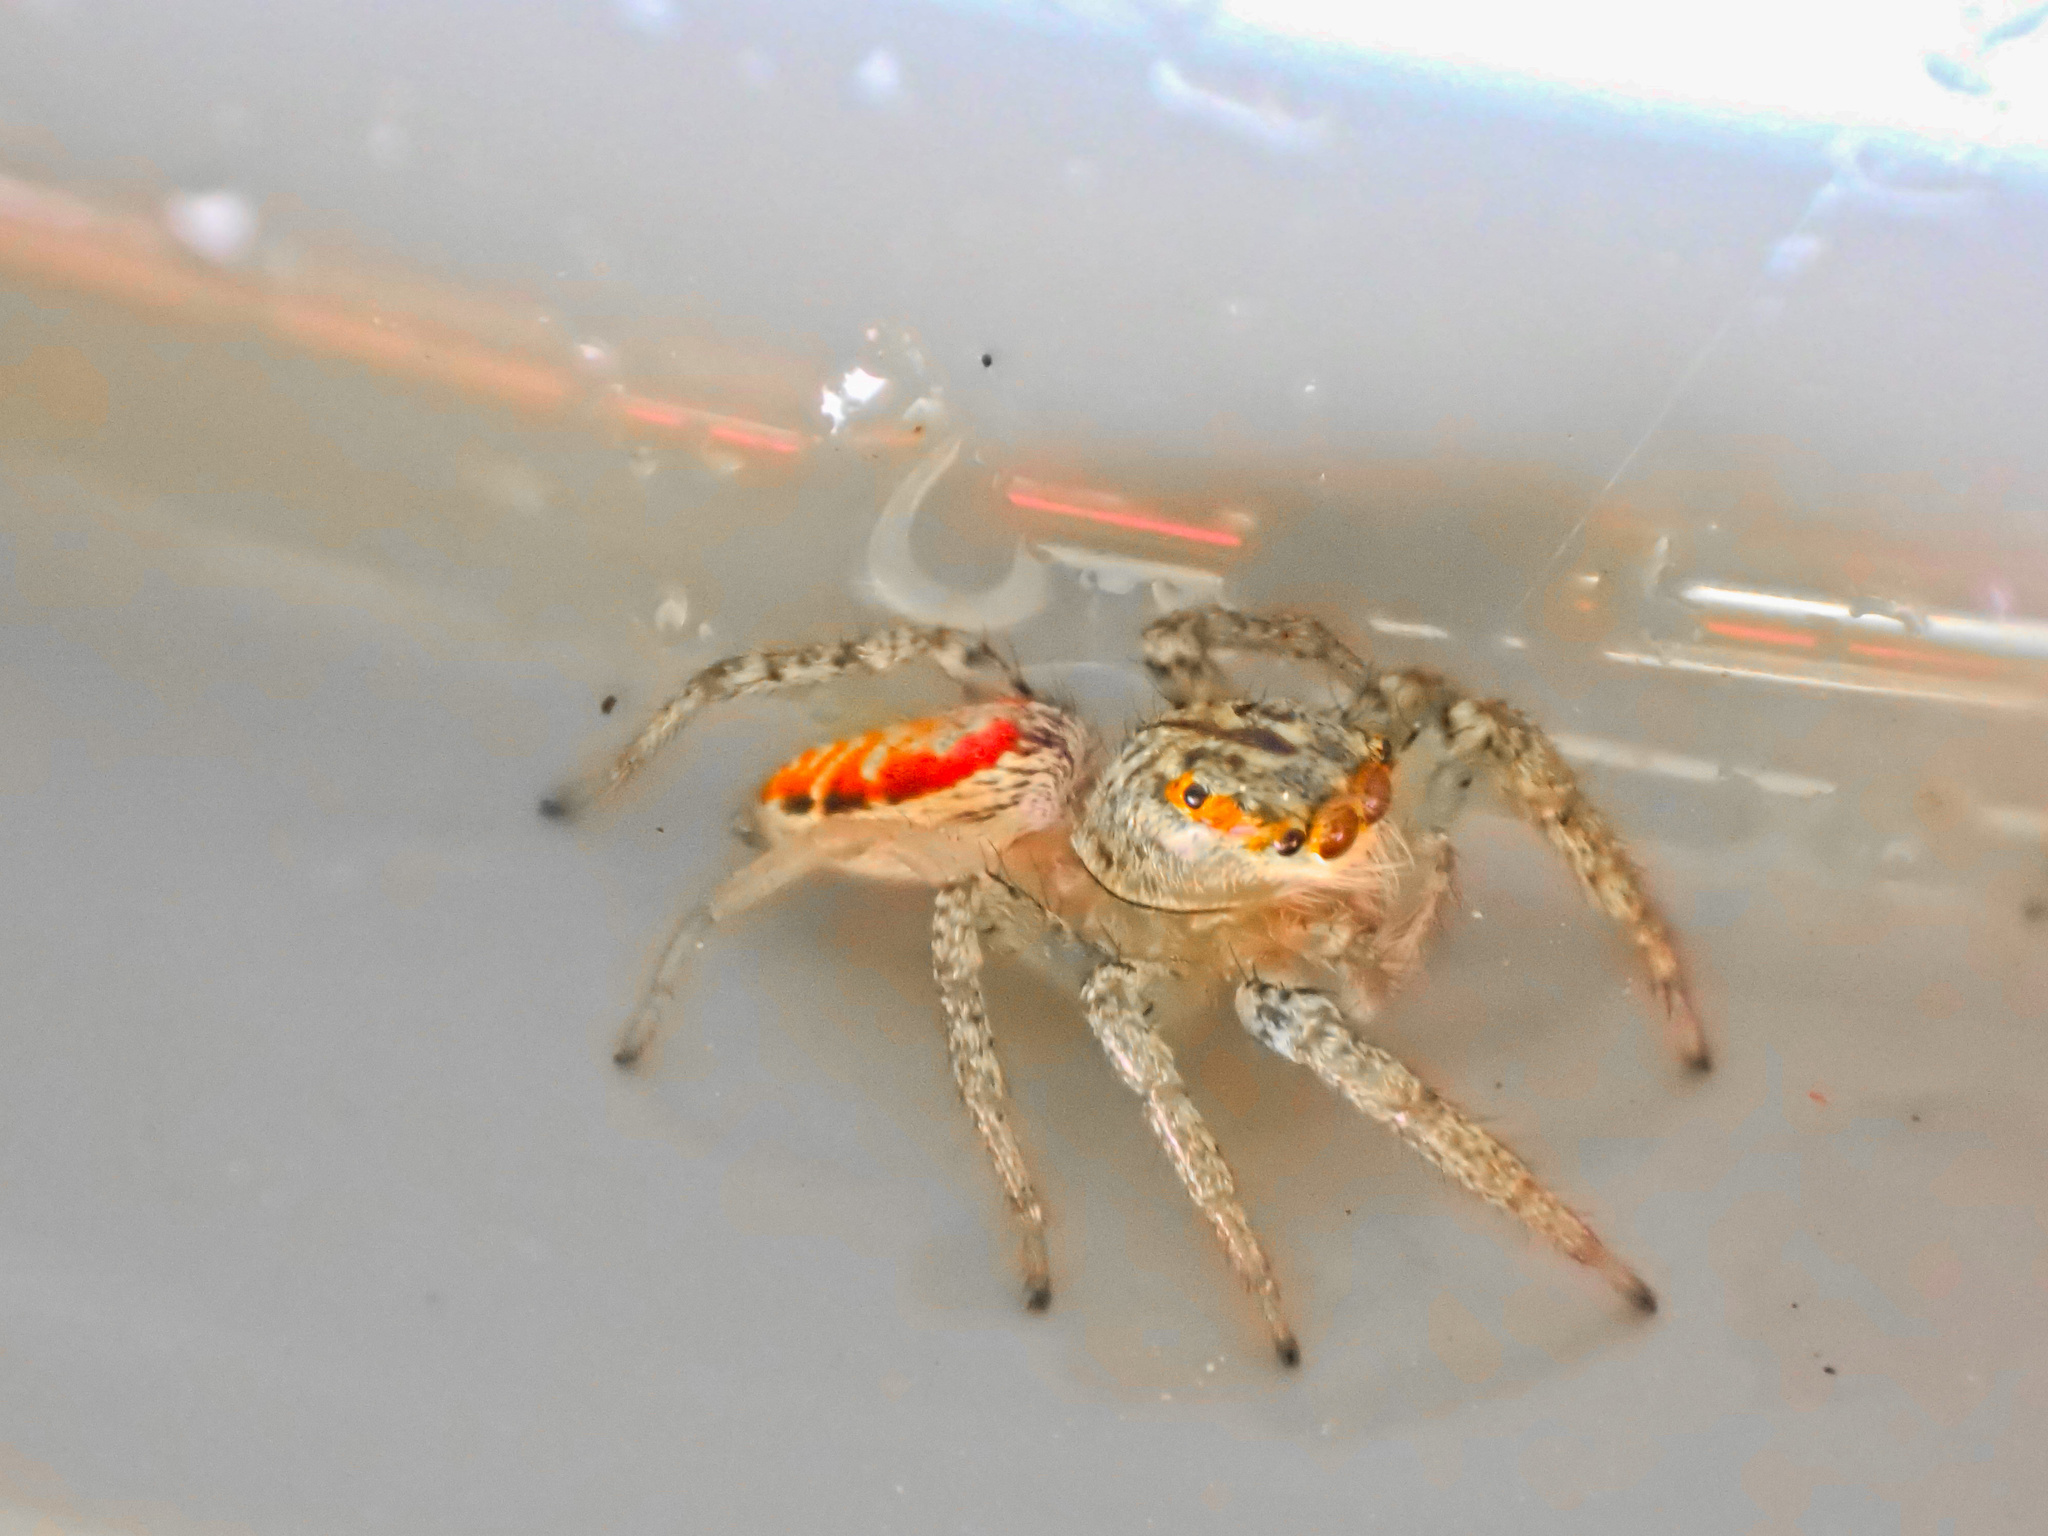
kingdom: Animalia
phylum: Arthropoda
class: Arachnida
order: Araneae
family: Salticidae
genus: Maevia
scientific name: Maevia inclemens
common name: Dimorphic jumper
